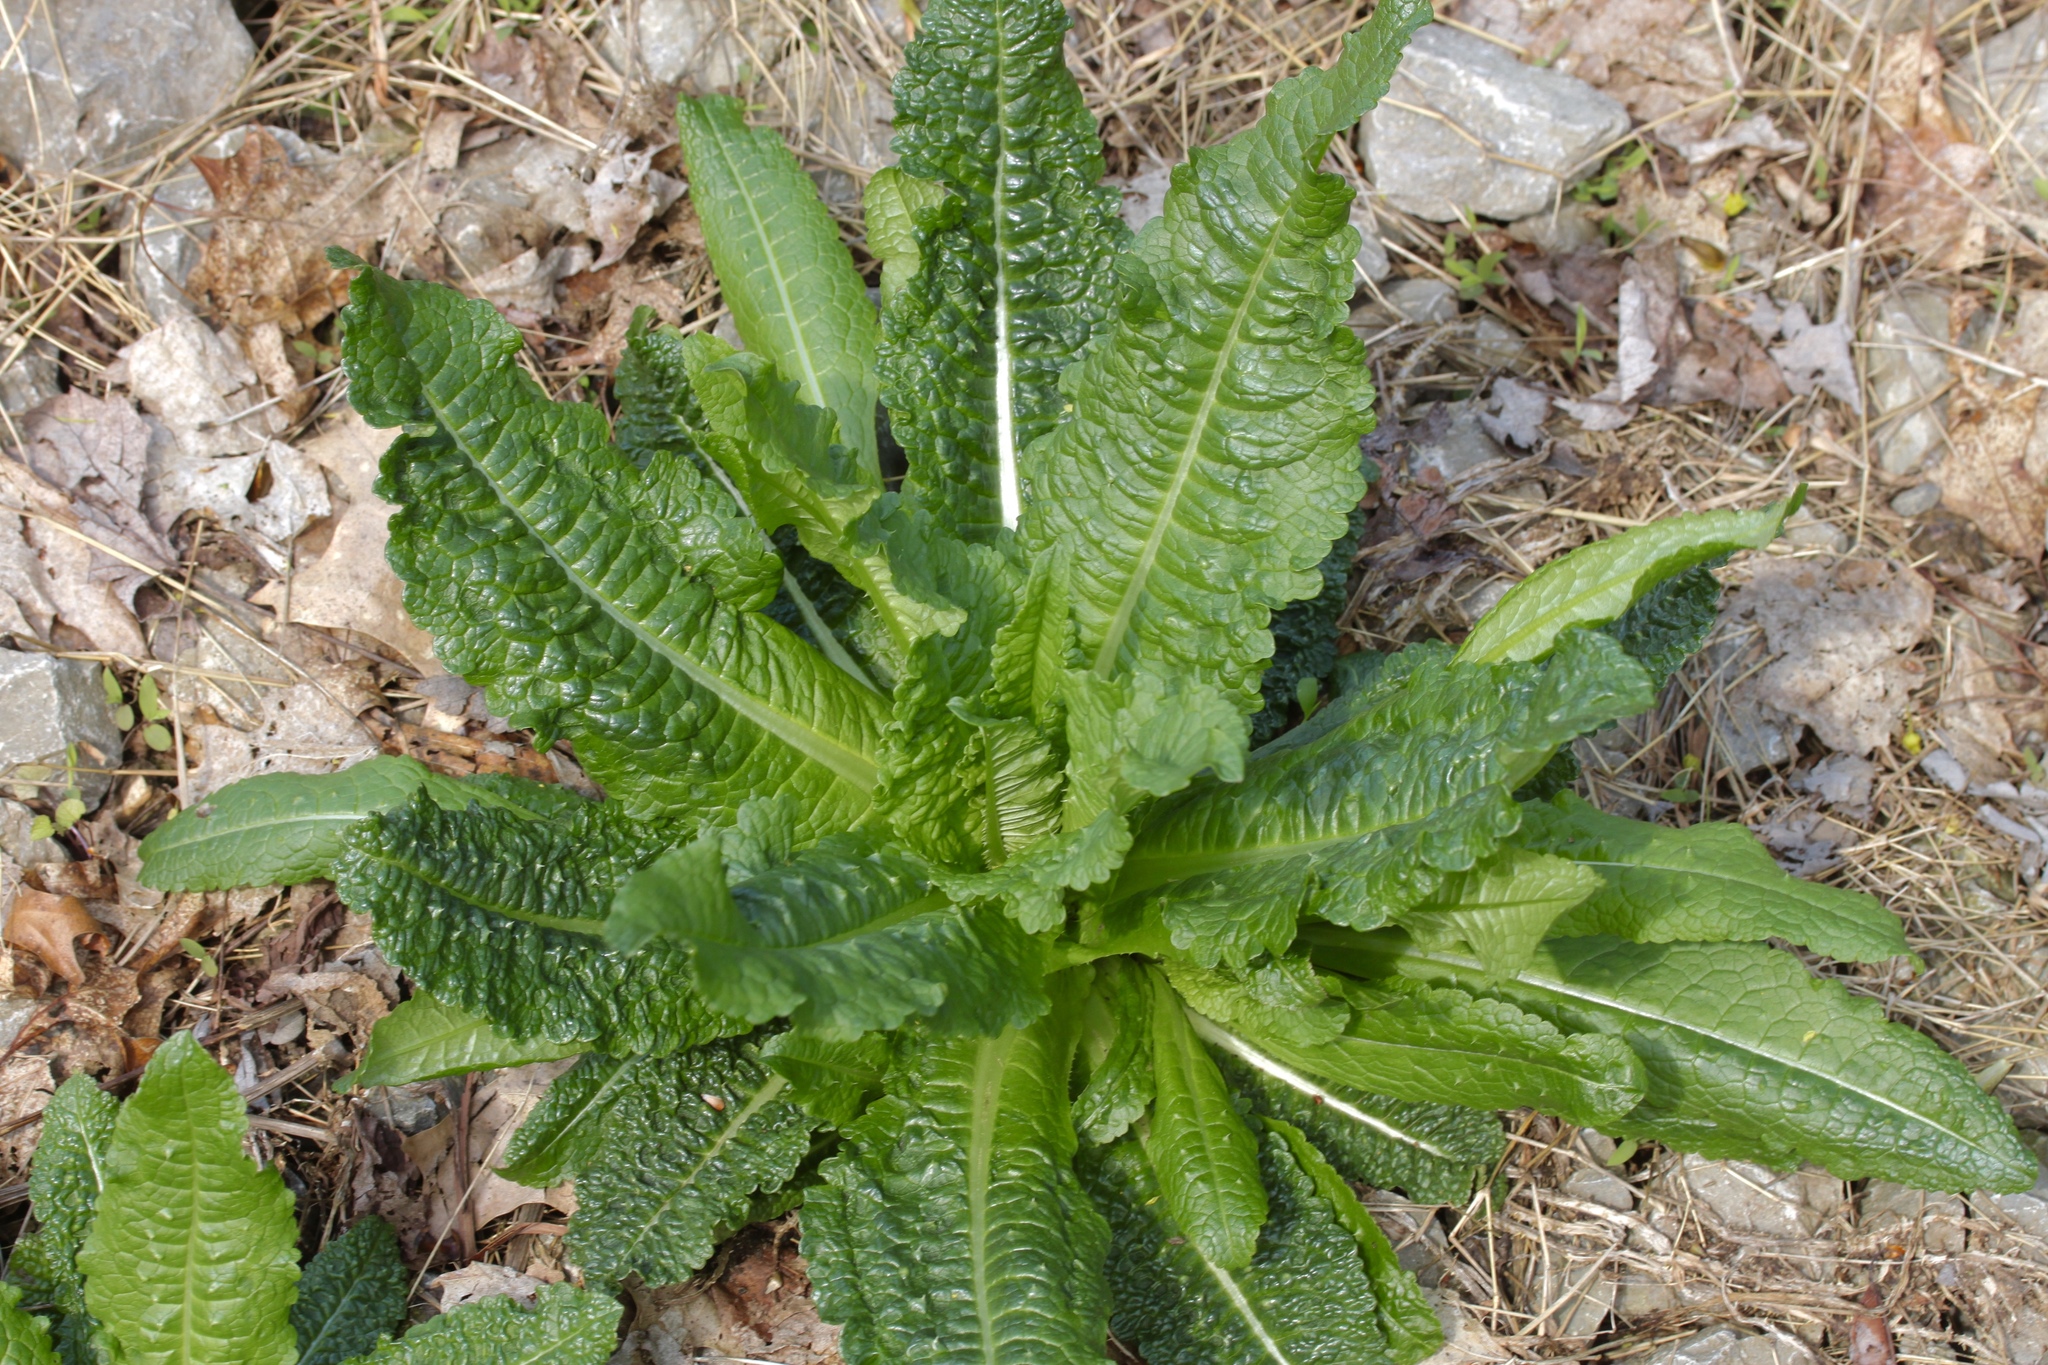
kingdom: Plantae
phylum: Tracheophyta
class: Magnoliopsida
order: Dipsacales
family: Caprifoliaceae
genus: Dipsacus
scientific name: Dipsacus fullonum
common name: Teasel
